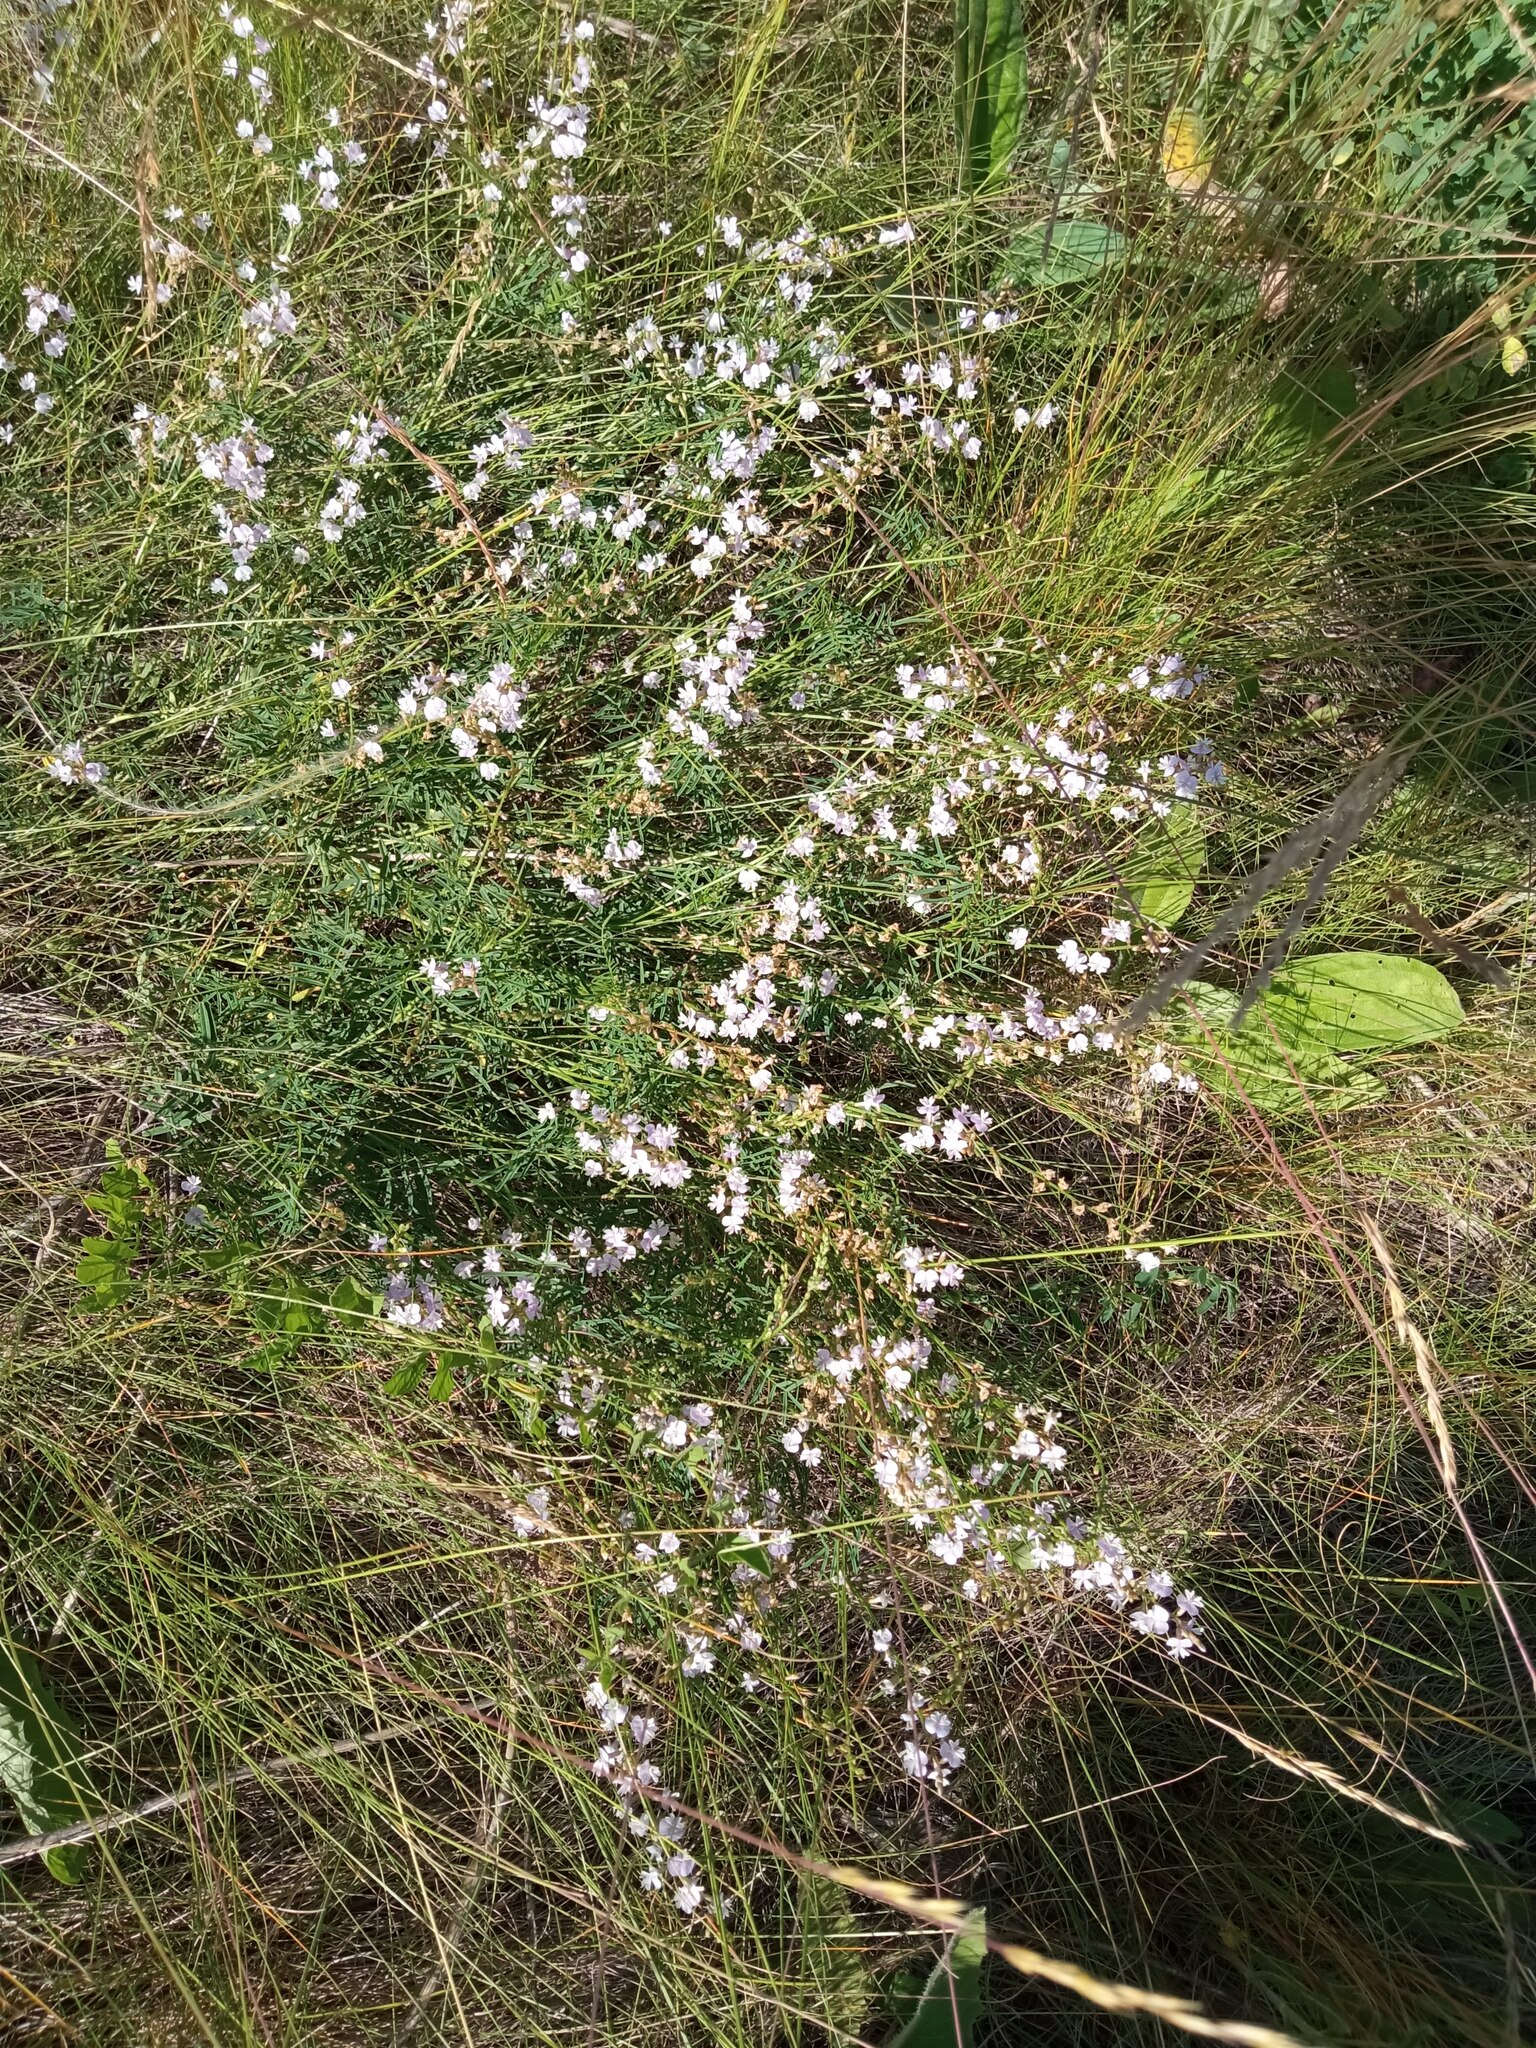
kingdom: Plantae
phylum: Tracheophyta
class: Magnoliopsida
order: Fabales
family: Fabaceae
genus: Astragalus
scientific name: Astragalus austriacus
